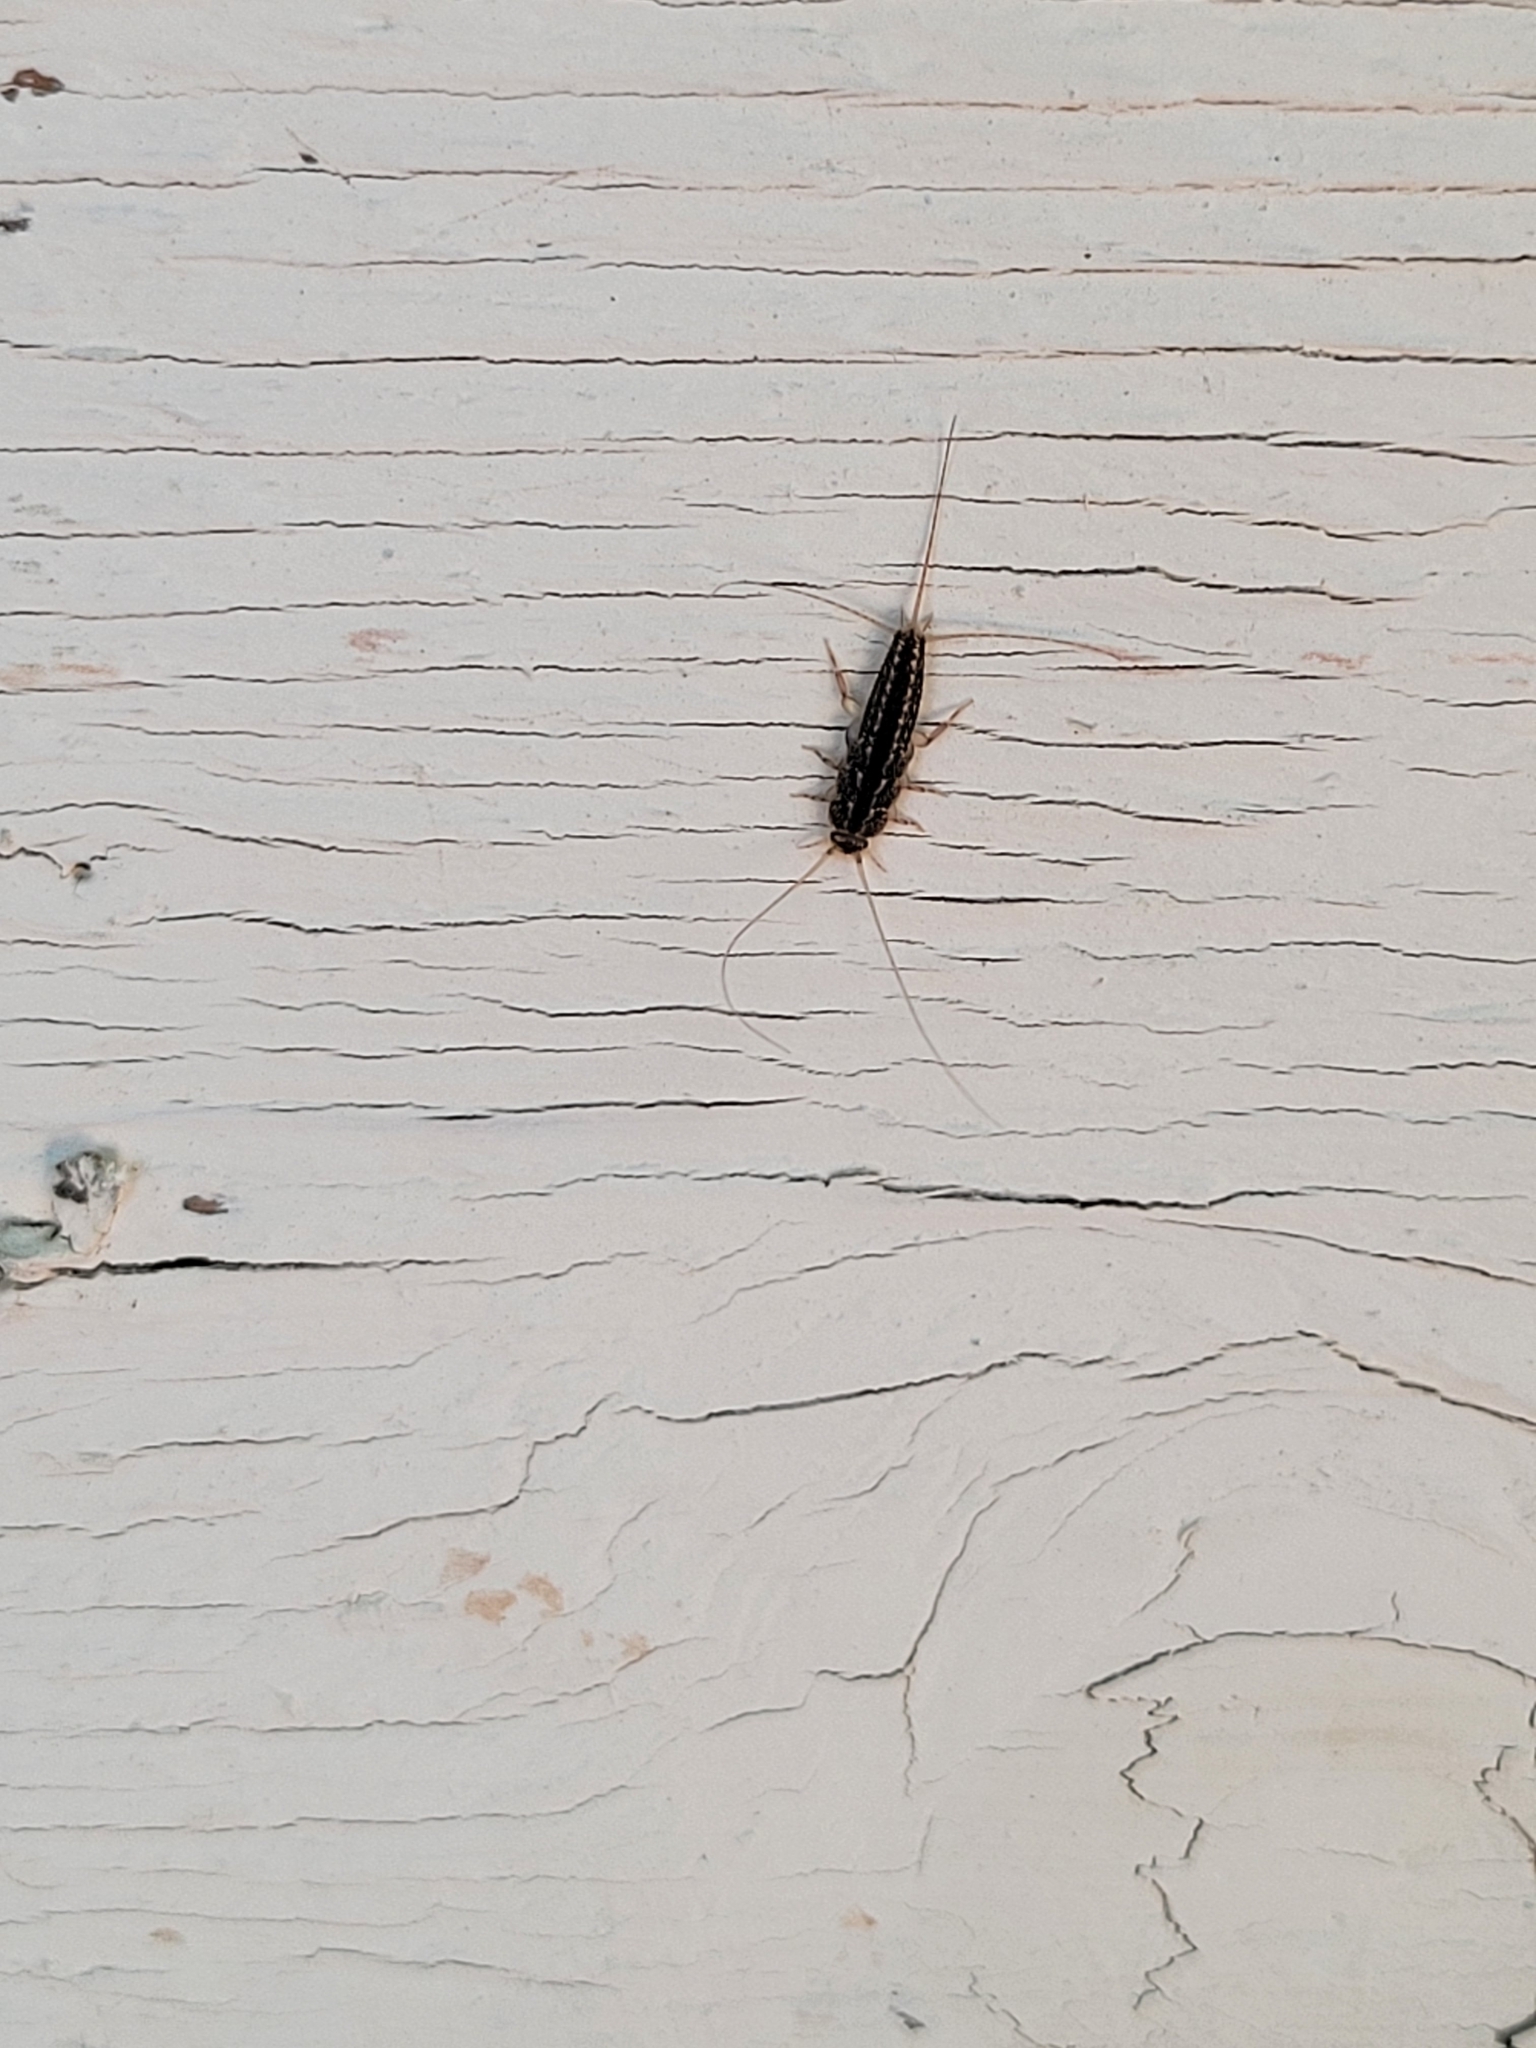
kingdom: Animalia
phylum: Arthropoda
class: Insecta
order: Zygentoma
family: Lepismatidae
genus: Ctenolepisma
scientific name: Ctenolepisma lineata
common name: Four-lined silverfish
